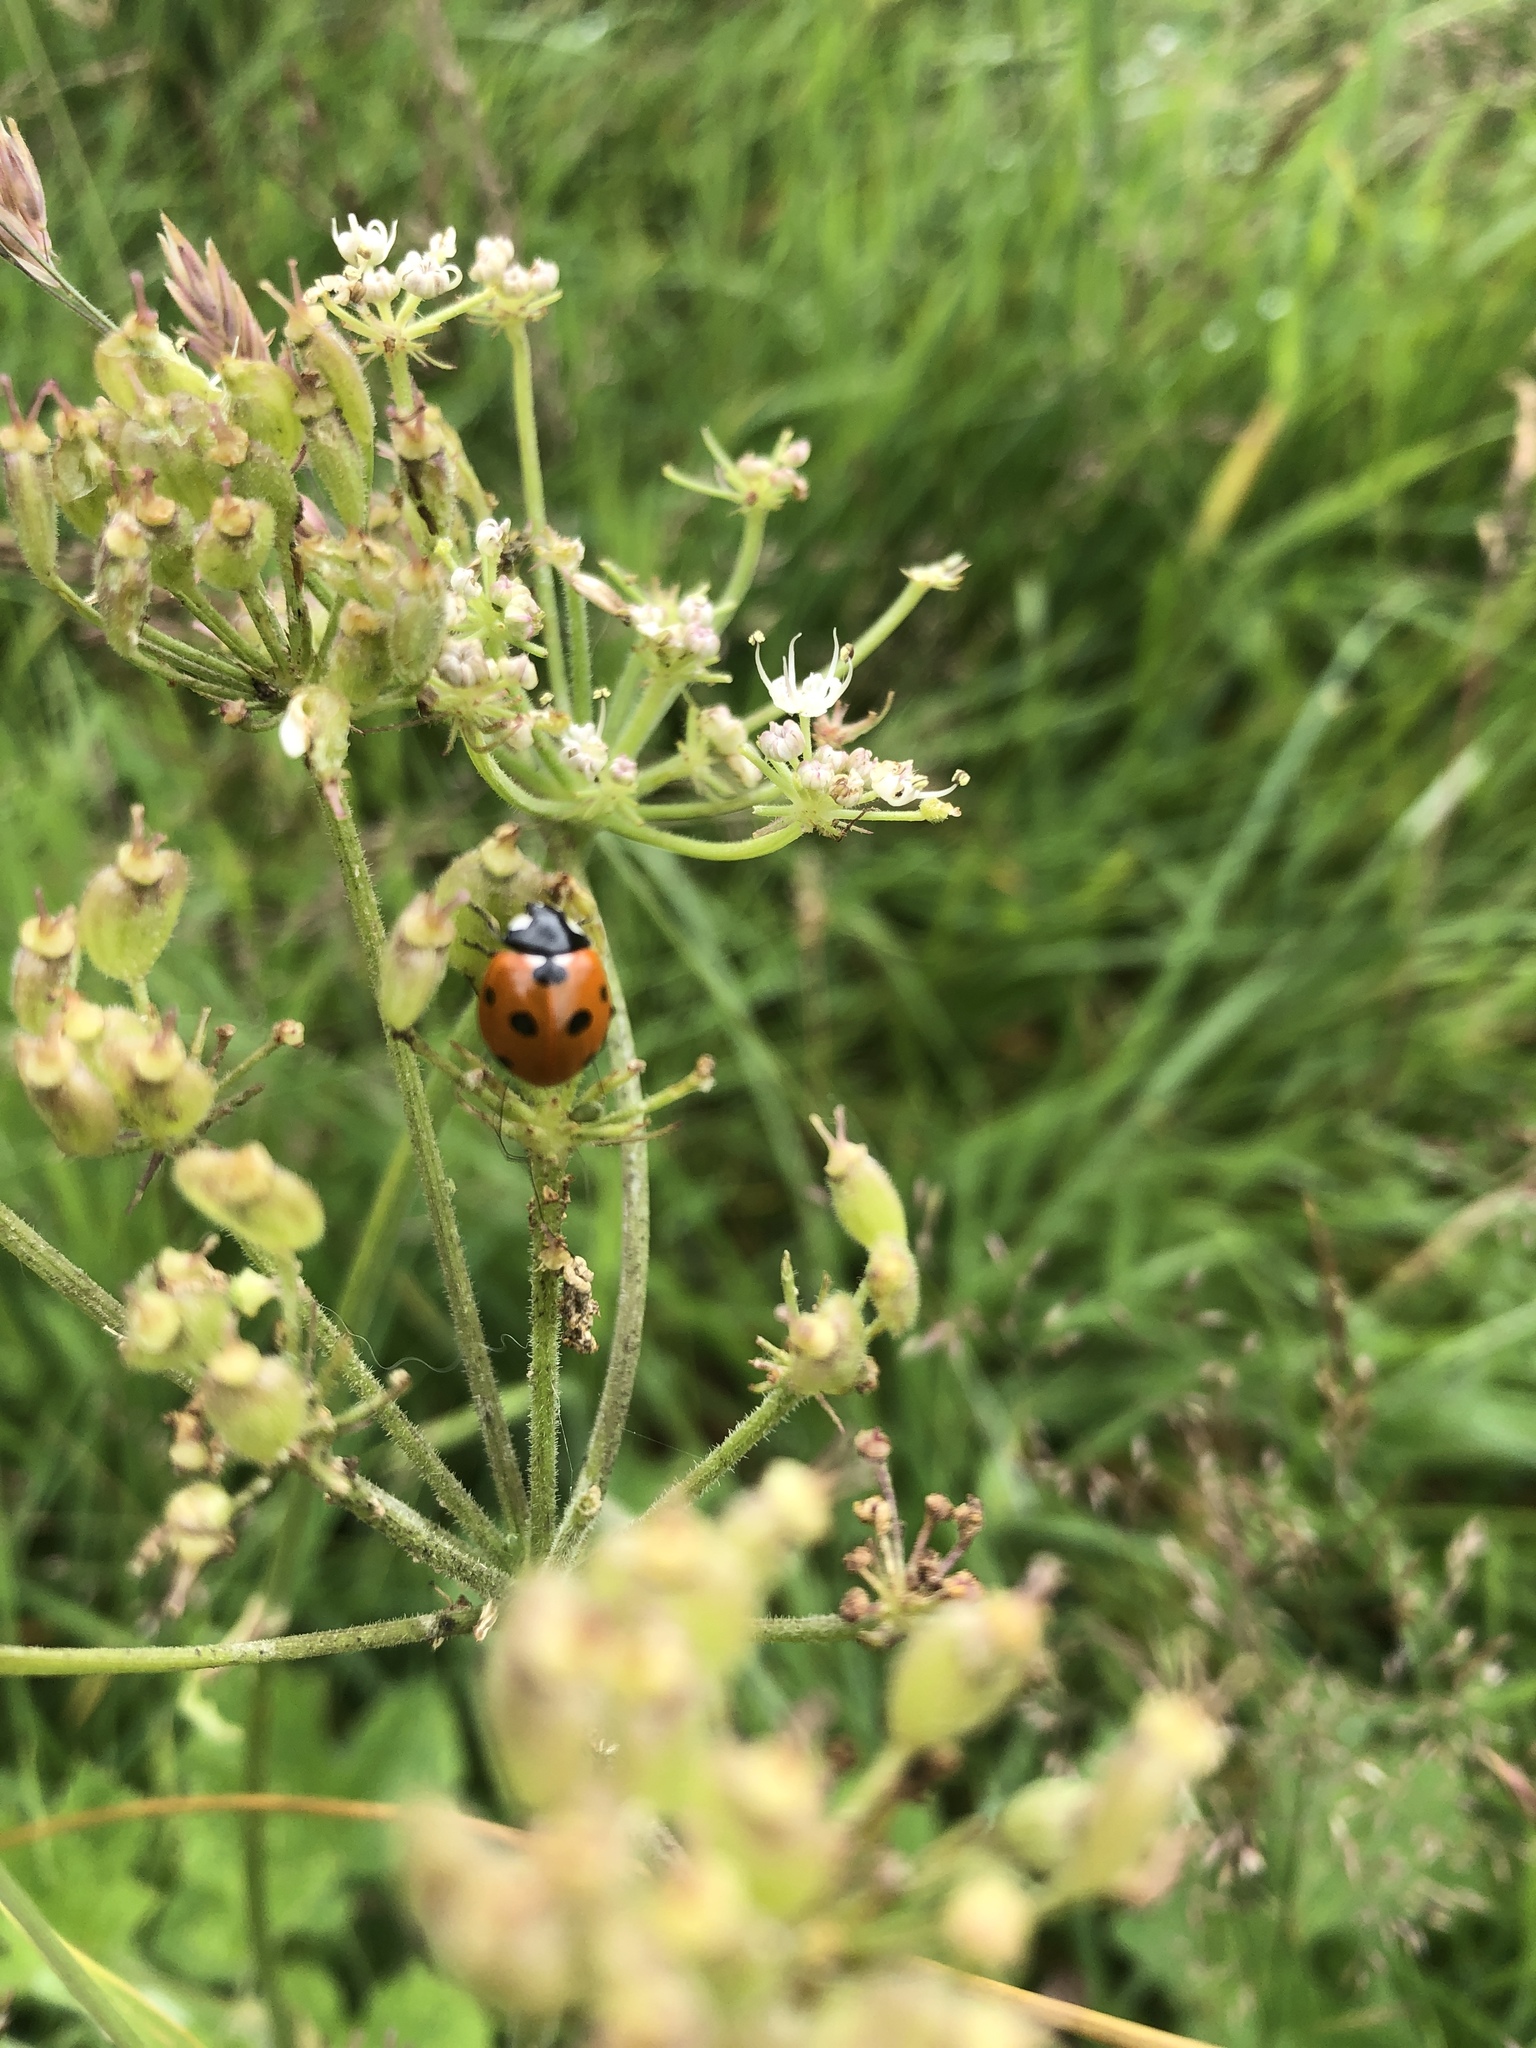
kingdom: Animalia
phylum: Arthropoda
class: Insecta
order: Coleoptera
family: Coccinellidae
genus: Coccinella
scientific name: Coccinella septempunctata
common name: Sevenspotted lady beetle
